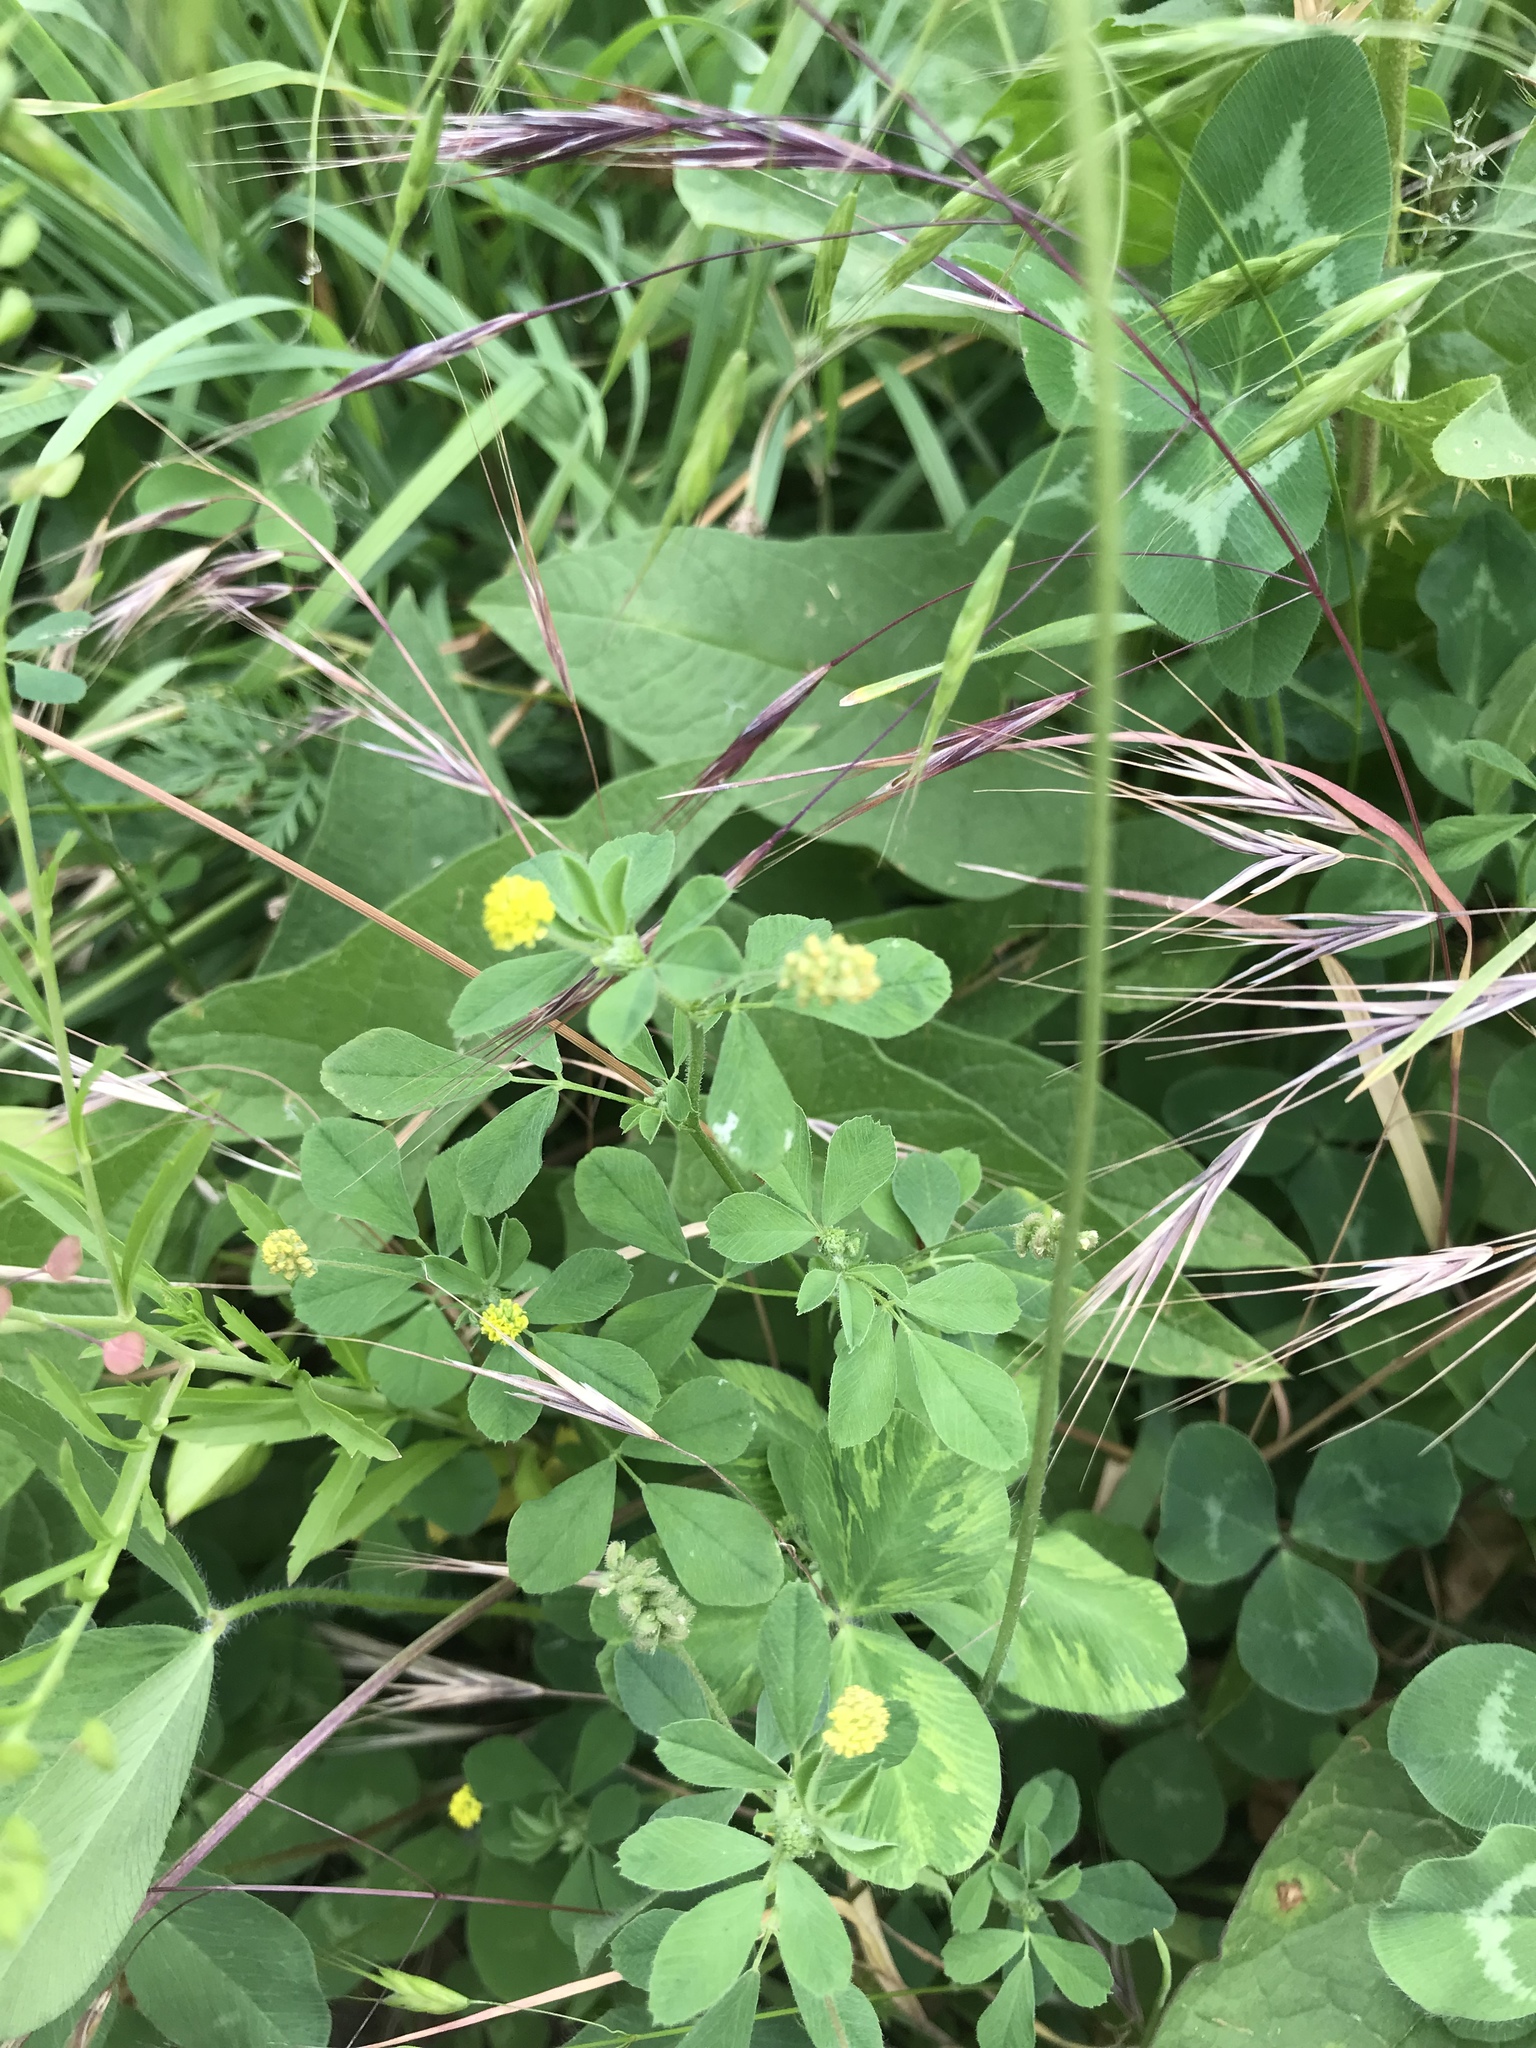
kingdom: Plantae
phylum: Tracheophyta
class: Magnoliopsida
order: Fabales
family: Fabaceae
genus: Medicago
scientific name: Medicago lupulina
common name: Black medick
